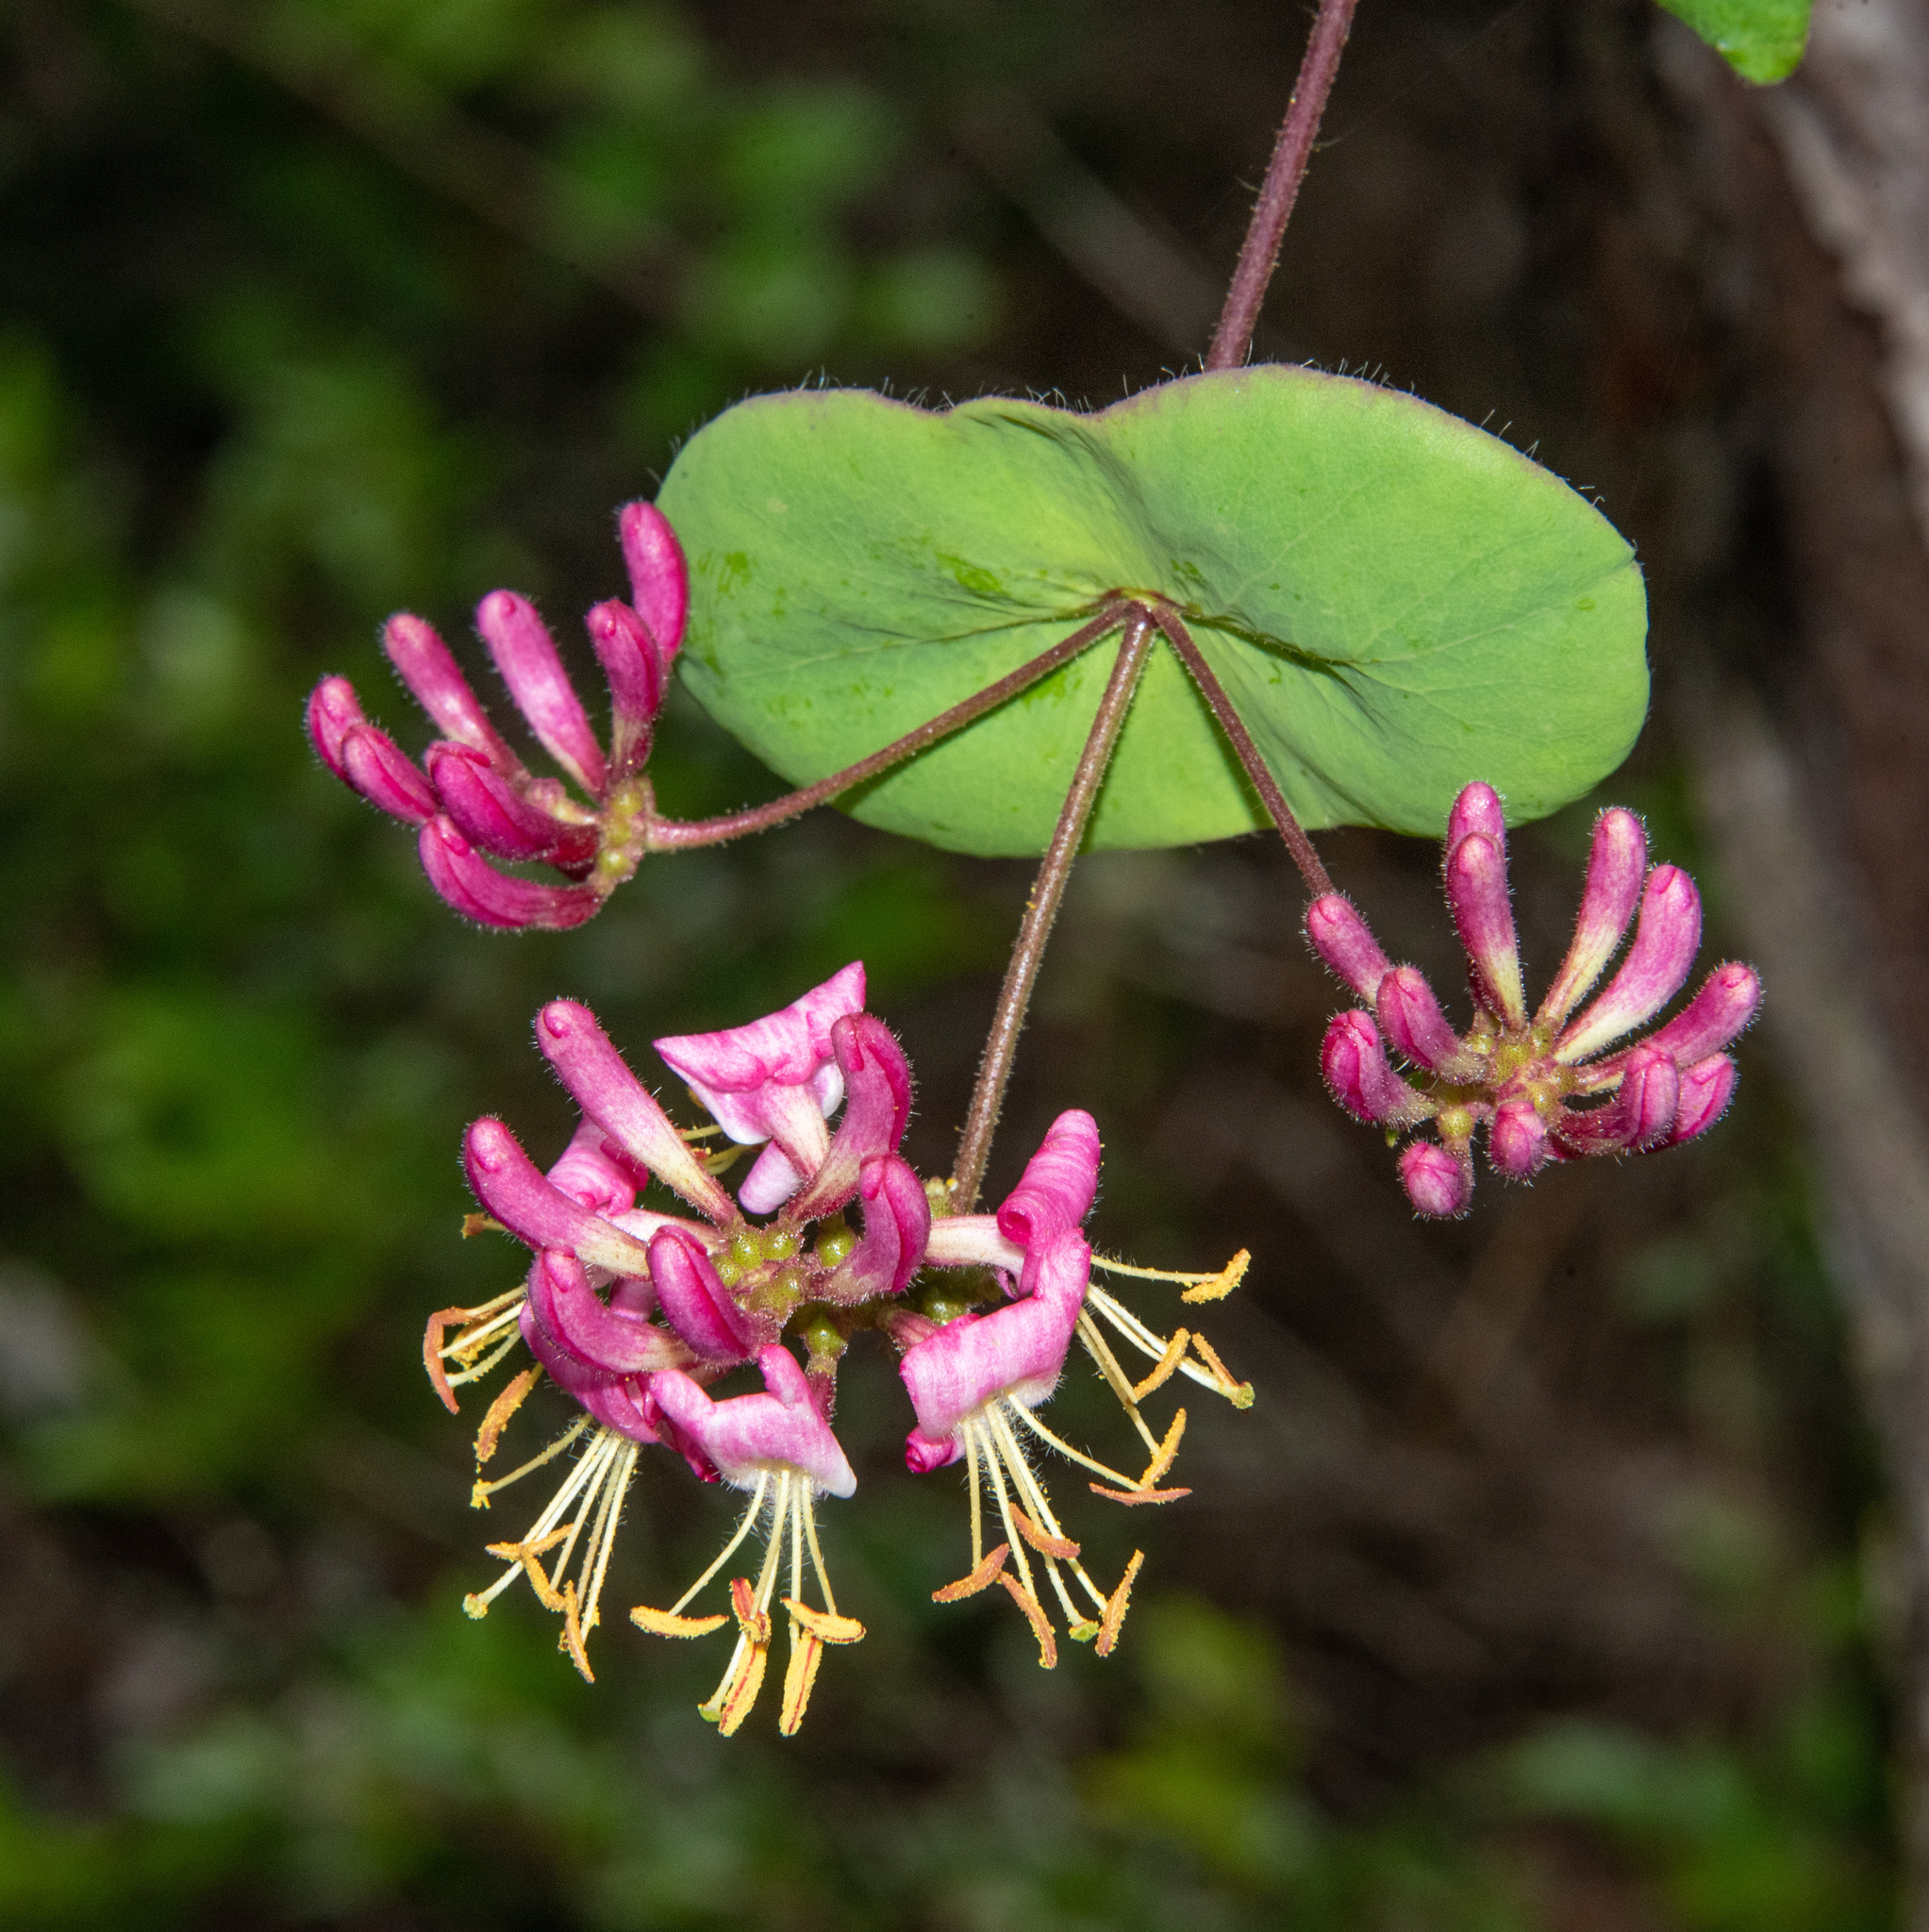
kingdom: Plantae
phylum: Tracheophyta
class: Magnoliopsida
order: Dipsacales
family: Caprifoliaceae
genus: Lonicera
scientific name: Lonicera hispidula
